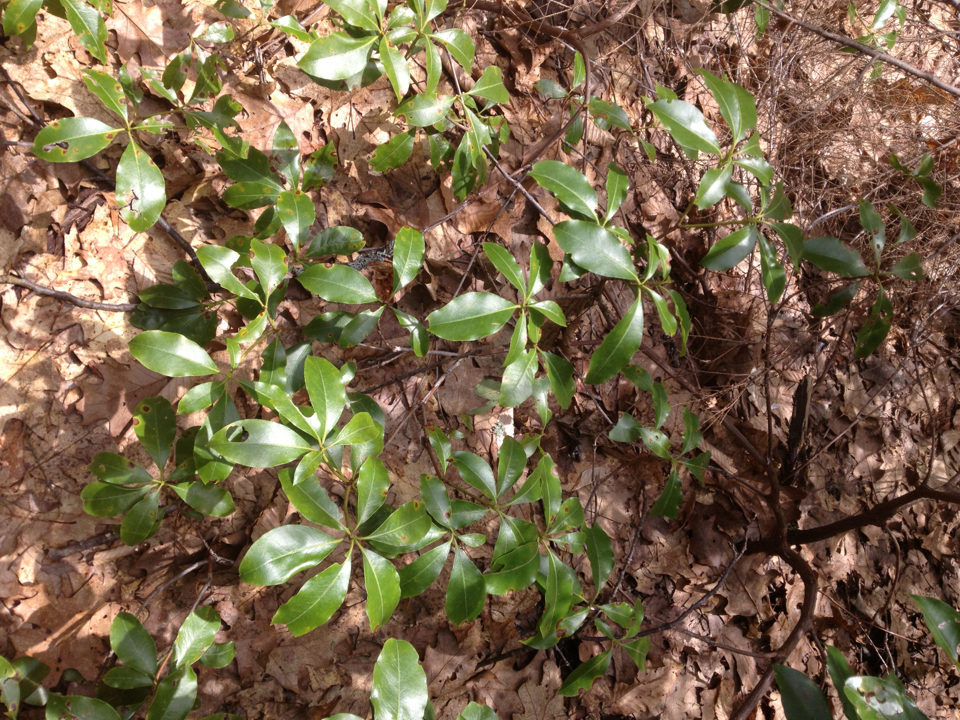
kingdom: Plantae
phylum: Tracheophyta
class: Magnoliopsida
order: Ericales
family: Ericaceae
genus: Kalmia
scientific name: Kalmia latifolia
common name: Mountain-laurel
